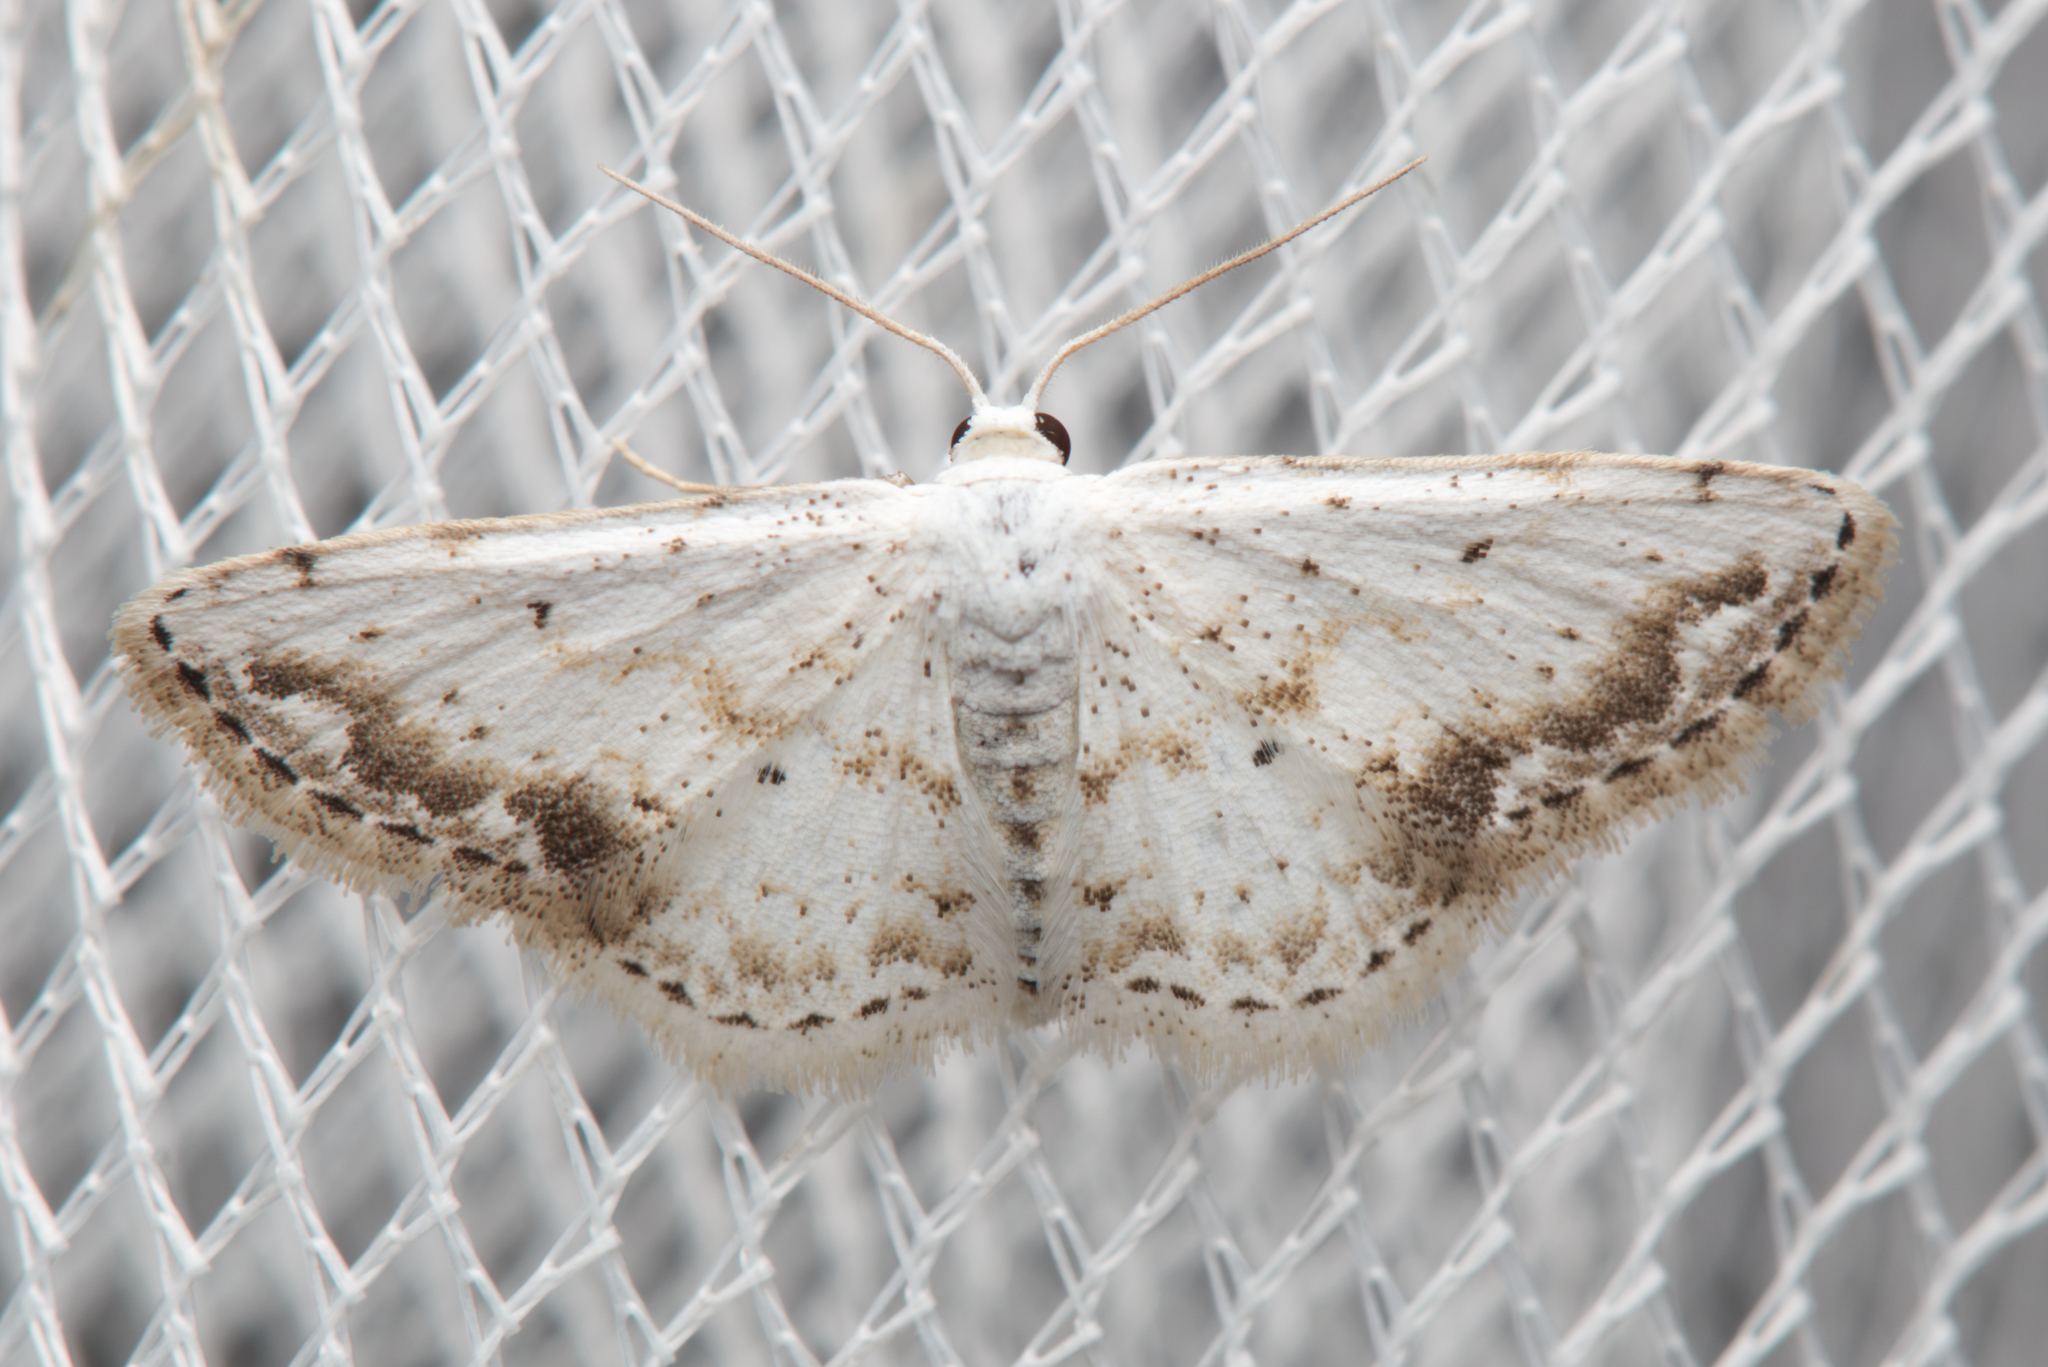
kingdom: Animalia
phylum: Arthropoda
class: Insecta
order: Lepidoptera
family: Geometridae
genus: Scopula
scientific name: Scopula innocens
